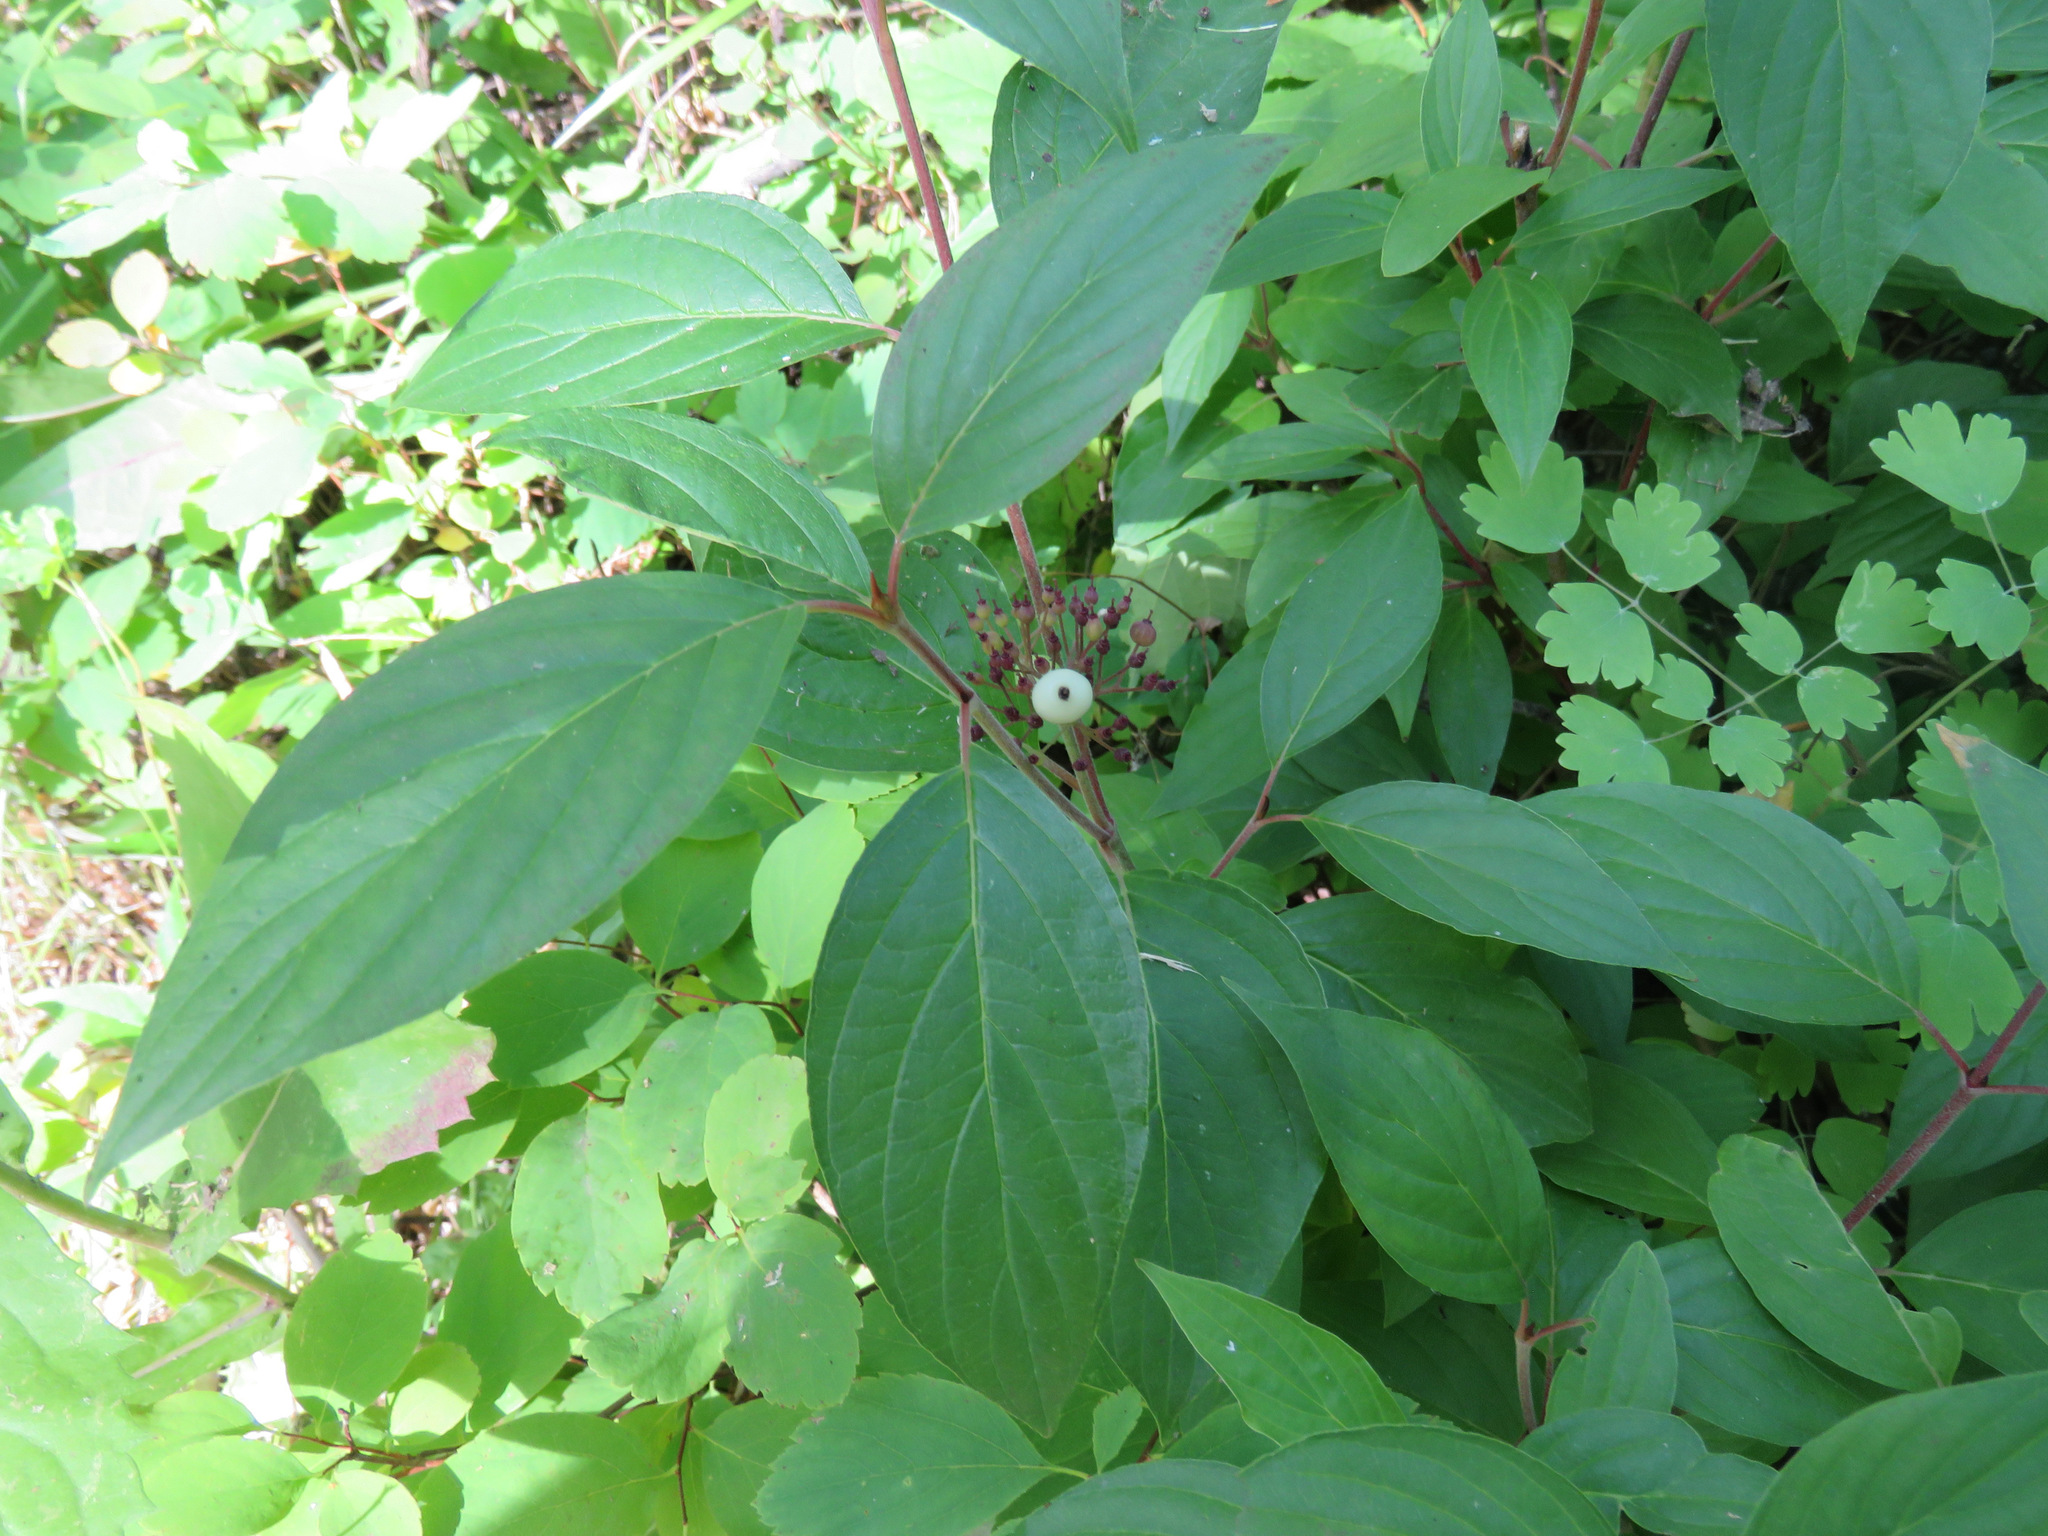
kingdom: Plantae
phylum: Tracheophyta
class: Magnoliopsida
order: Cornales
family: Cornaceae
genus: Cornus
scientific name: Cornus sericea
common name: Red-osier dogwood
